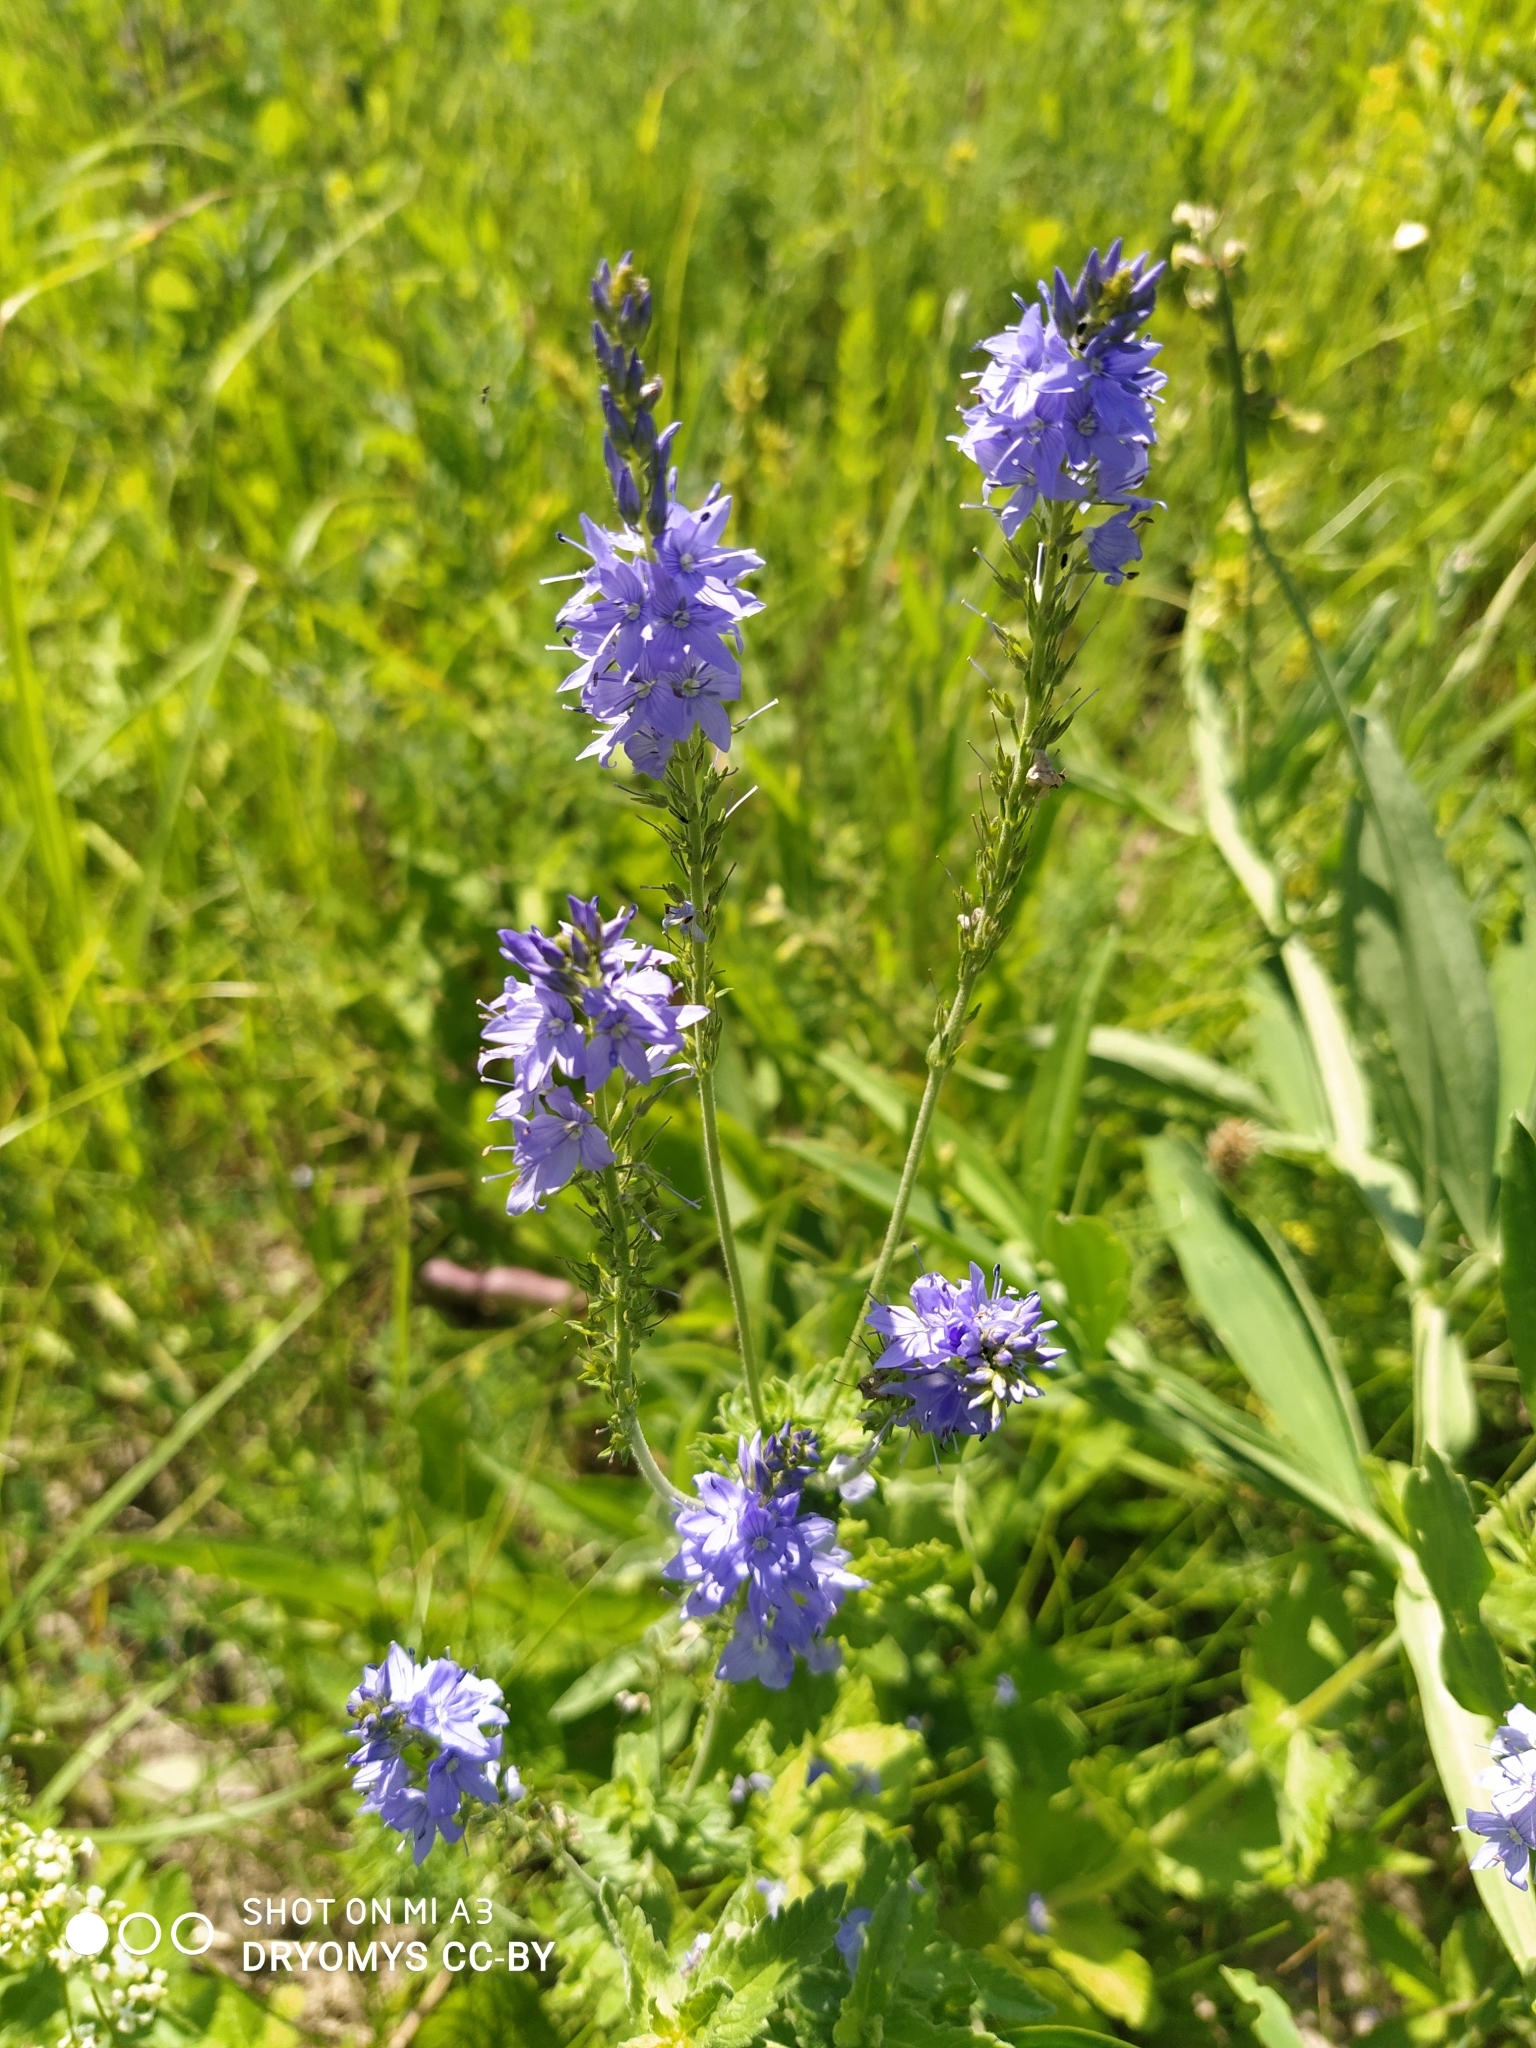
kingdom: Plantae
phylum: Tracheophyta
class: Magnoliopsida
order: Lamiales
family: Plantaginaceae
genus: Veronica
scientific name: Veronica teucrium
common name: Large speedwell
